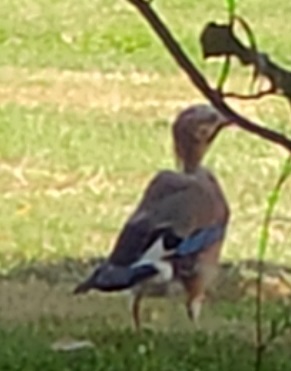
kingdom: Animalia
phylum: Chordata
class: Aves
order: Passeriformes
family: Corvidae
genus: Garrulus
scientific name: Garrulus glandarius
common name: Eurasian jay
